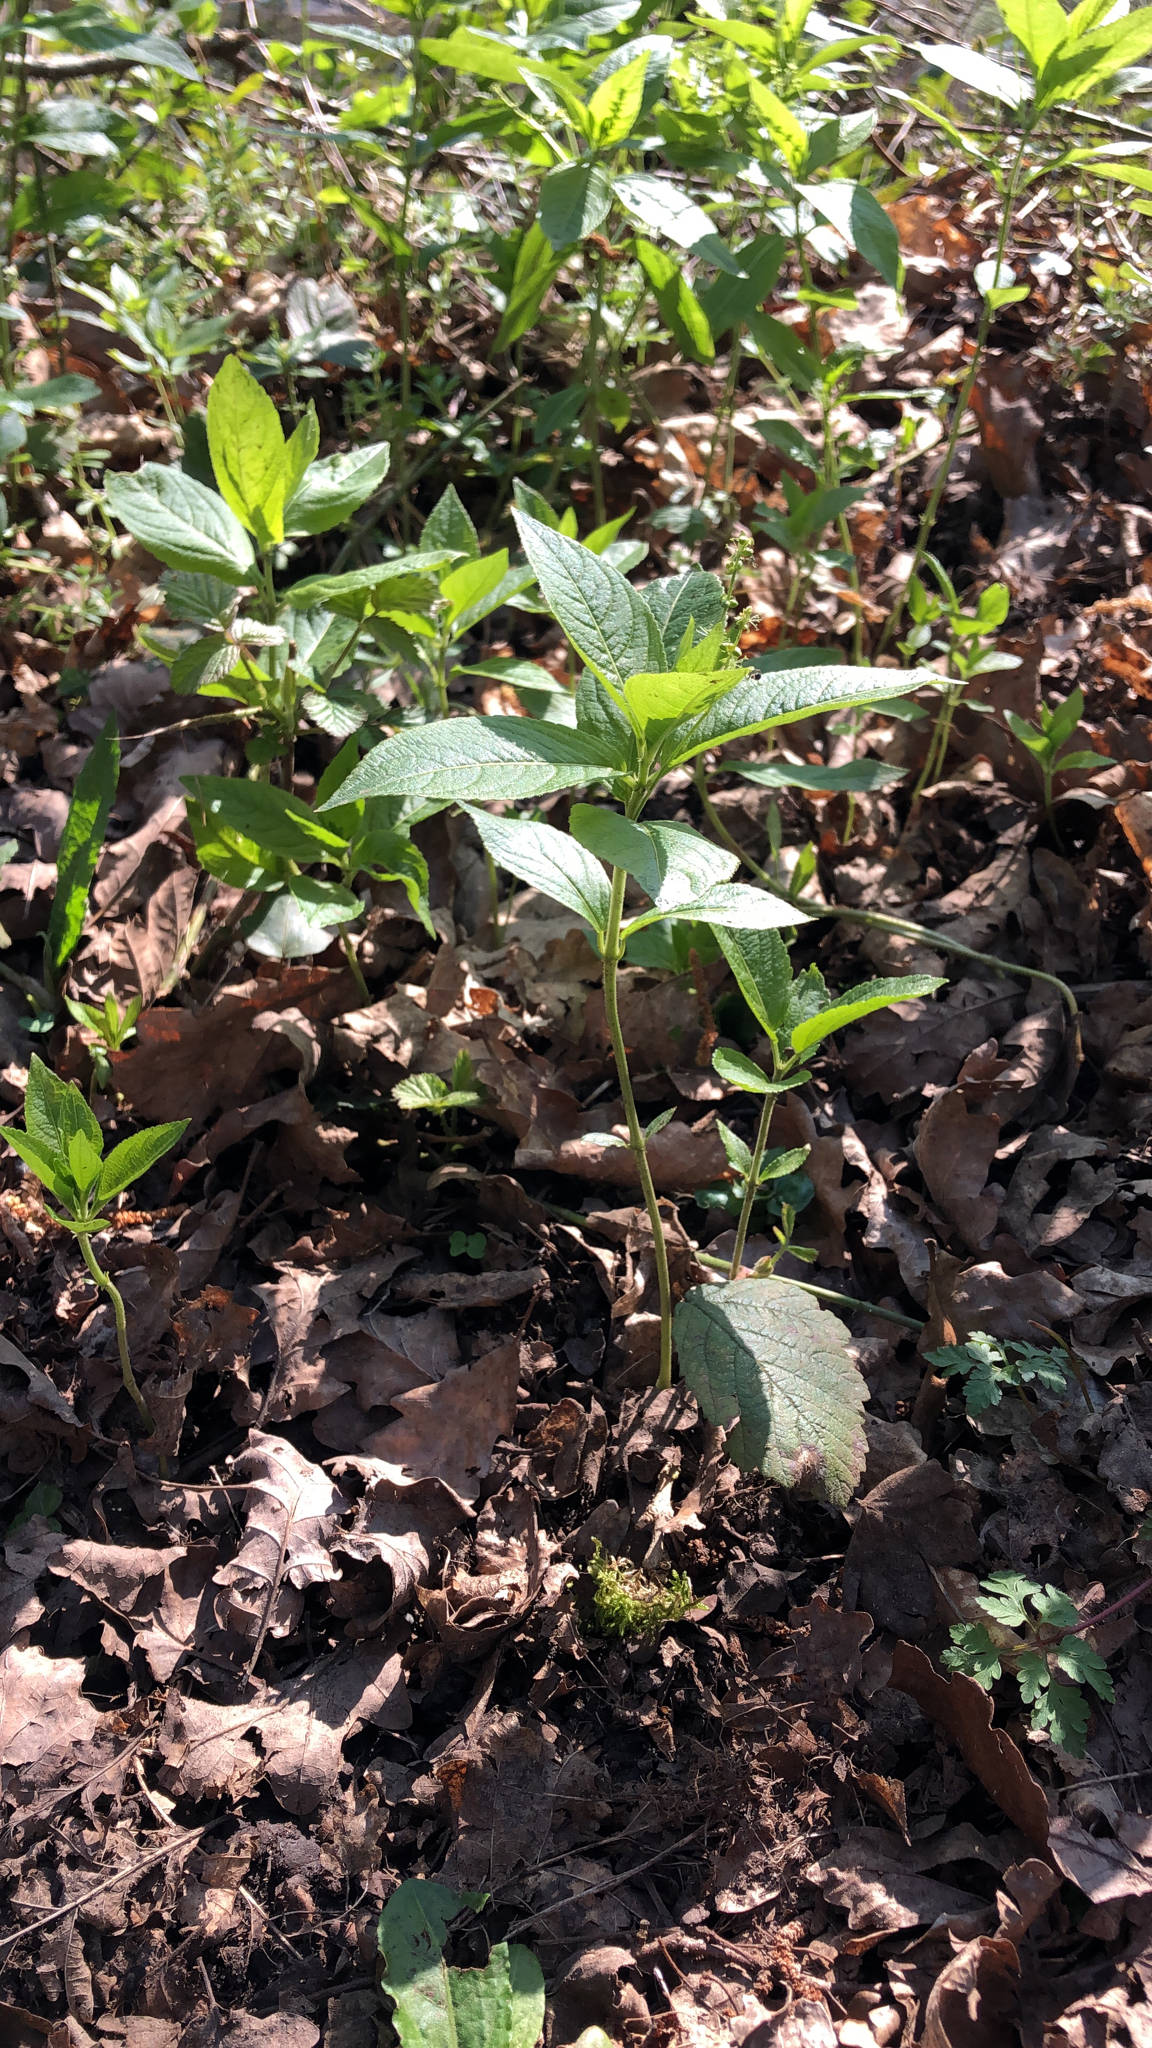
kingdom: Plantae
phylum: Tracheophyta
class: Magnoliopsida
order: Malpighiales
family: Euphorbiaceae
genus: Mercurialis
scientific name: Mercurialis perennis
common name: Dog mercury
